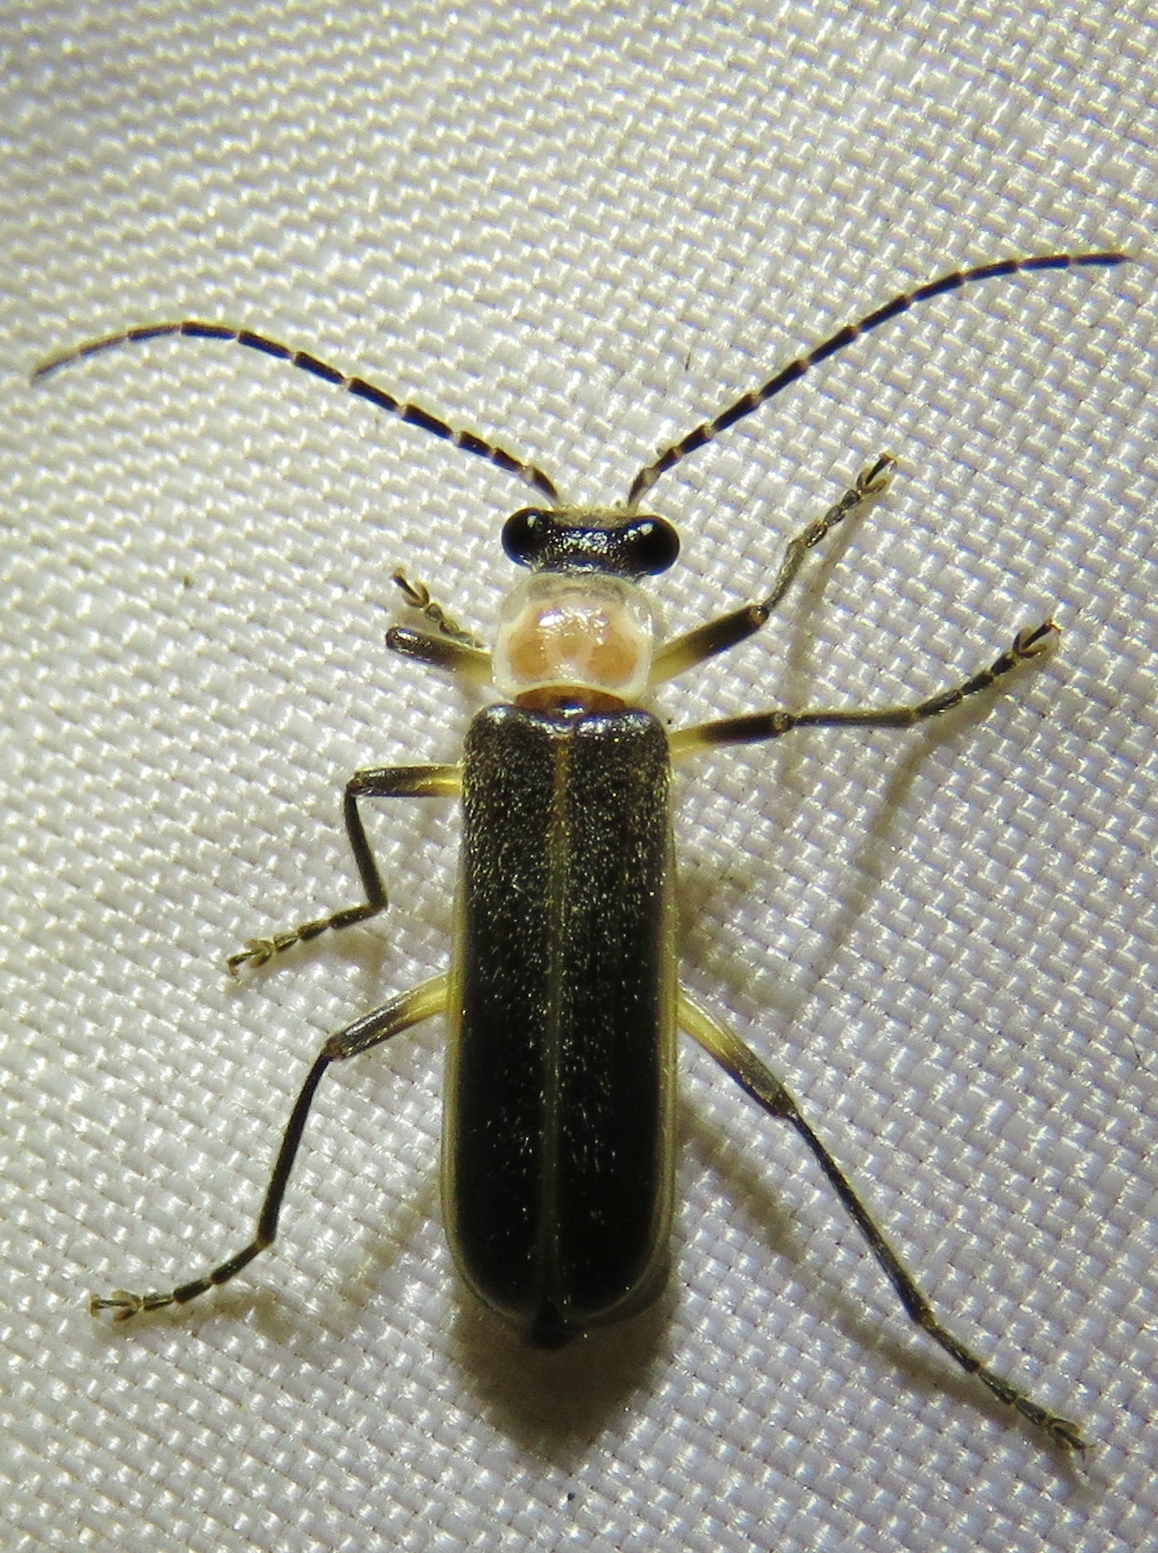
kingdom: Animalia
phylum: Arthropoda
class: Insecta
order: Coleoptera
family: Cantharidae
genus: Podabrus
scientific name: Podabrus quadratus
